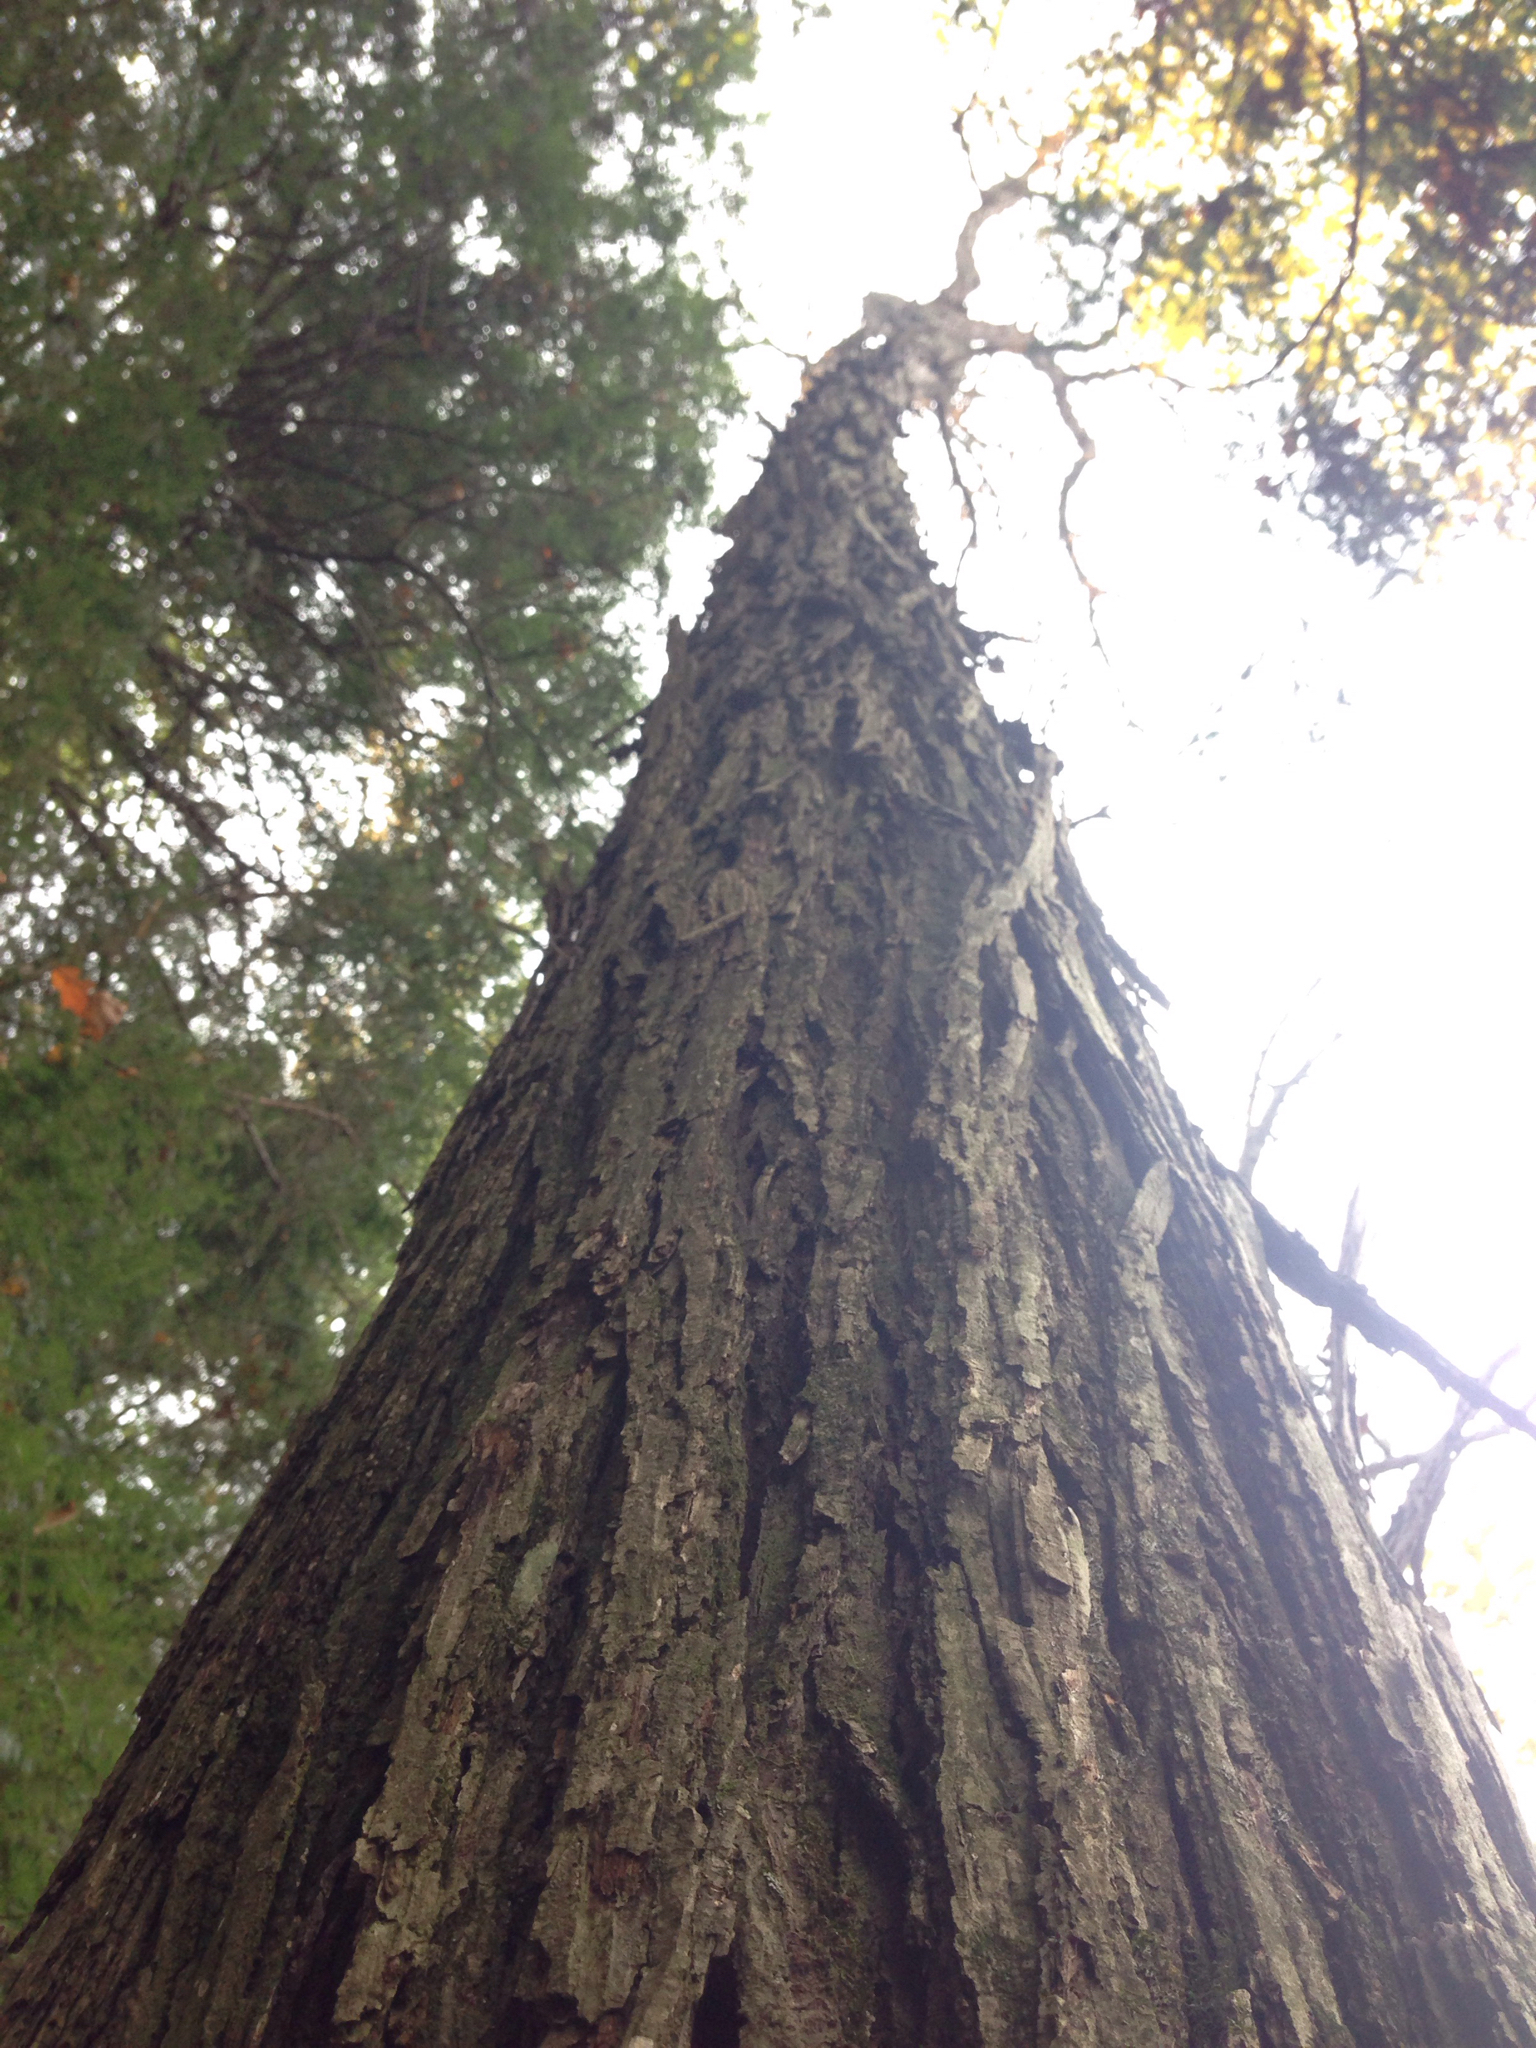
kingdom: Plantae
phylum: Tracheophyta
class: Magnoliopsida
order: Fagales
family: Juglandaceae
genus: Carya
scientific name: Carya ovata
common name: Shagbark hickory
